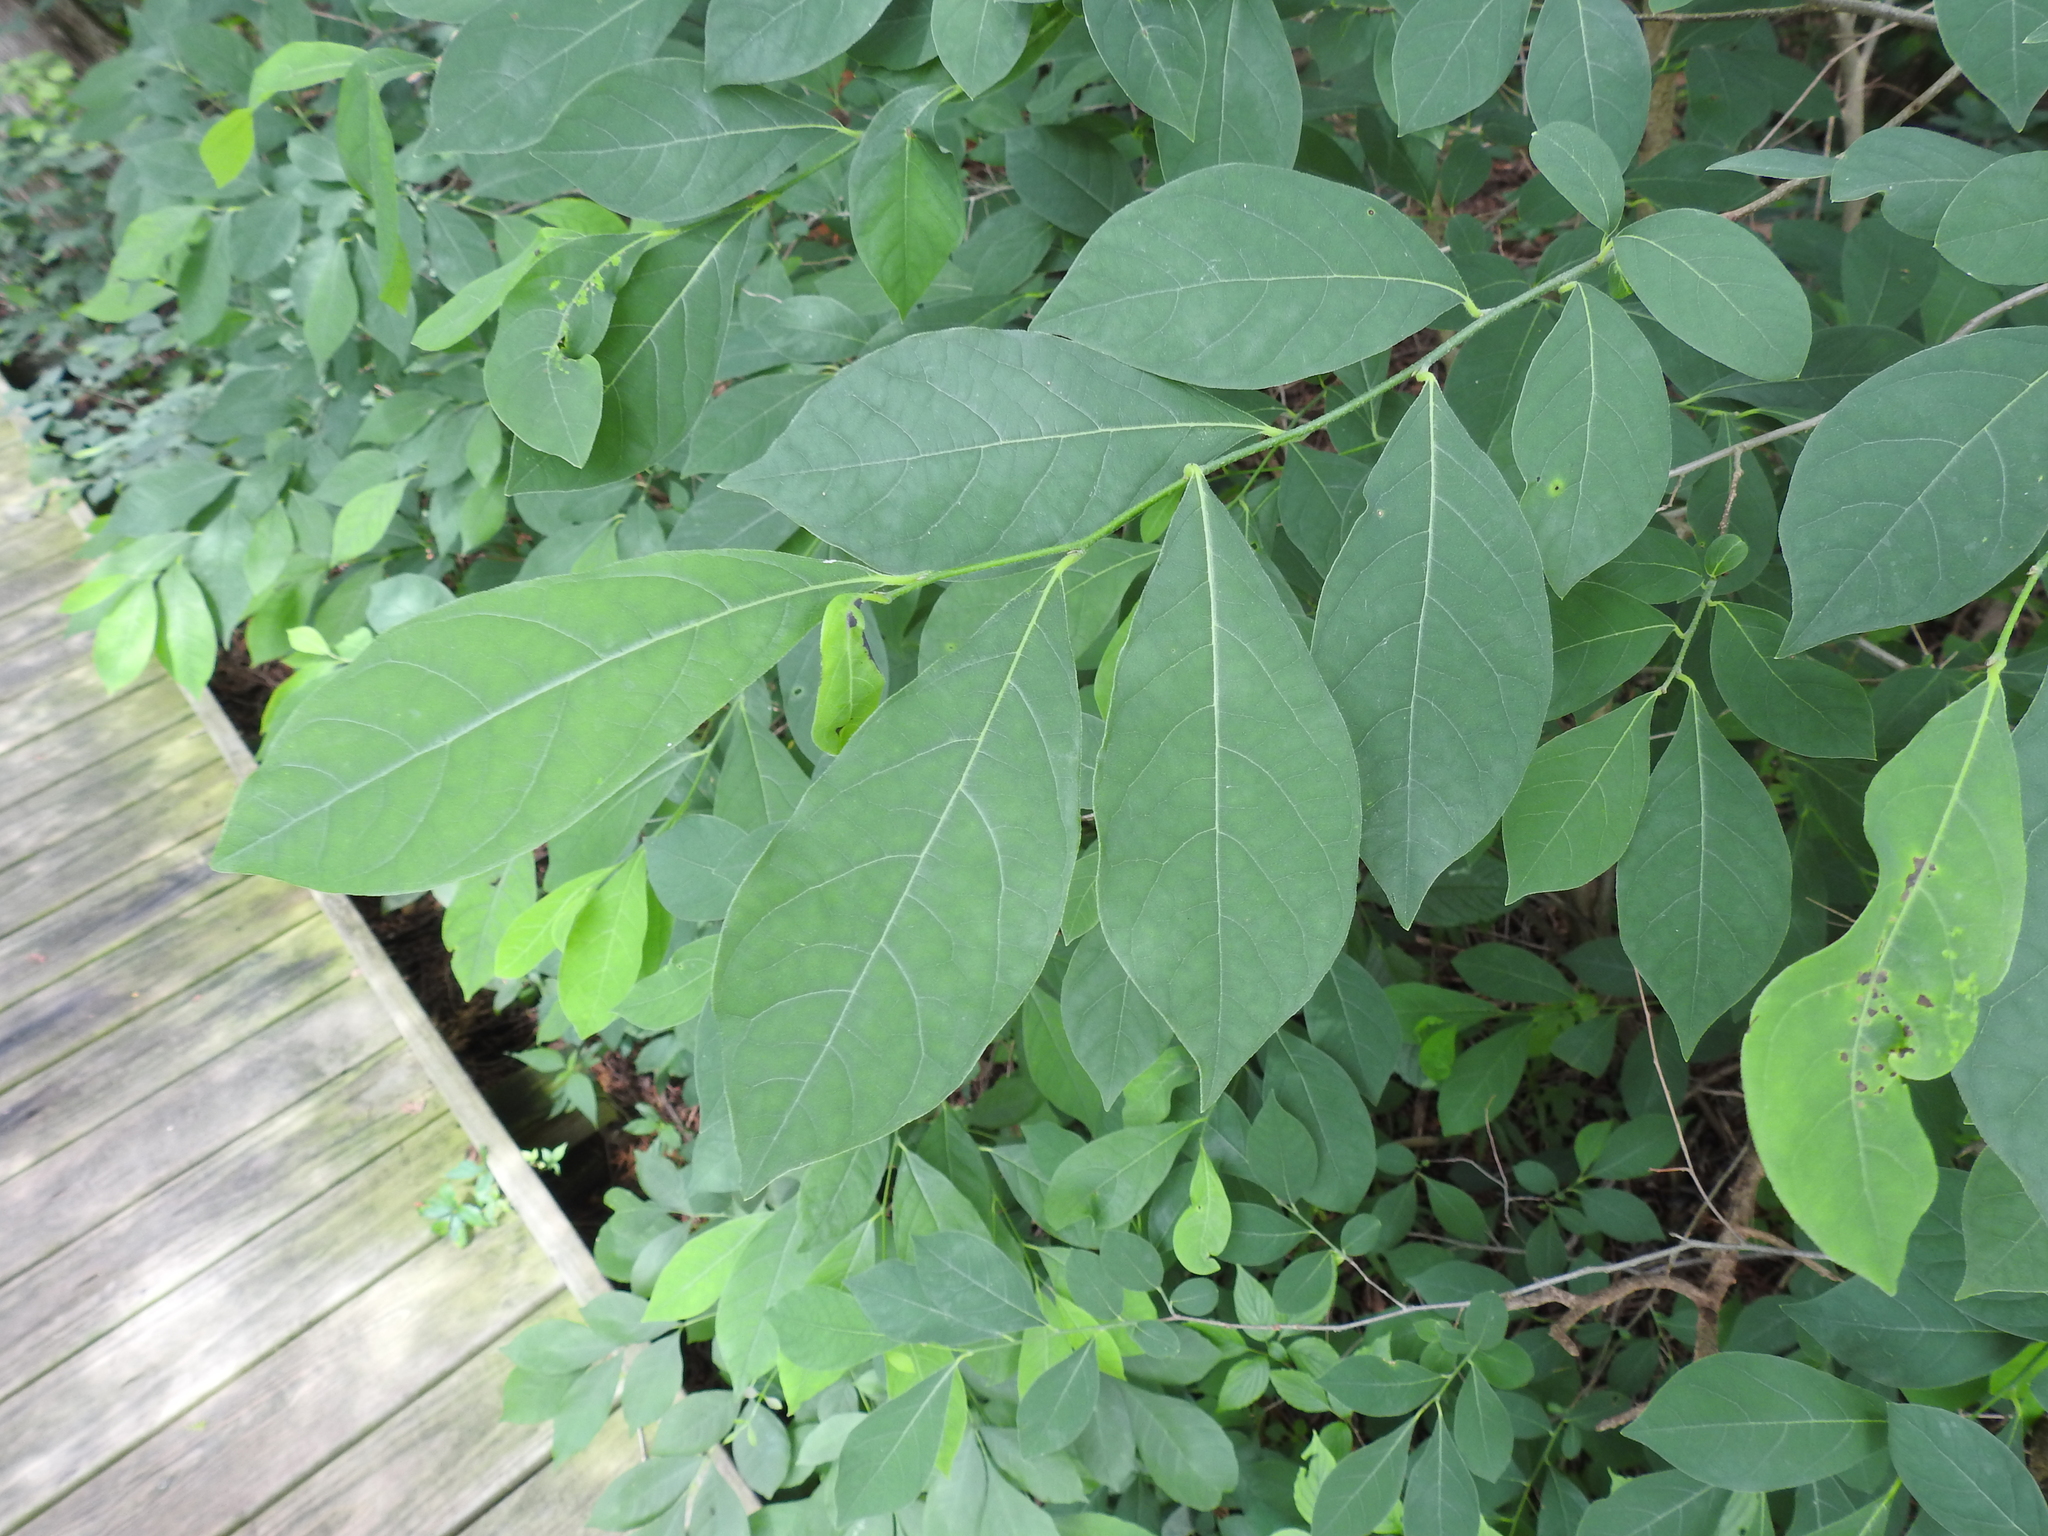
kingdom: Plantae
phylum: Tracheophyta
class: Magnoliopsida
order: Laurales
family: Lauraceae
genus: Lindera
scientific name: Lindera benzoin
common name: Spicebush
